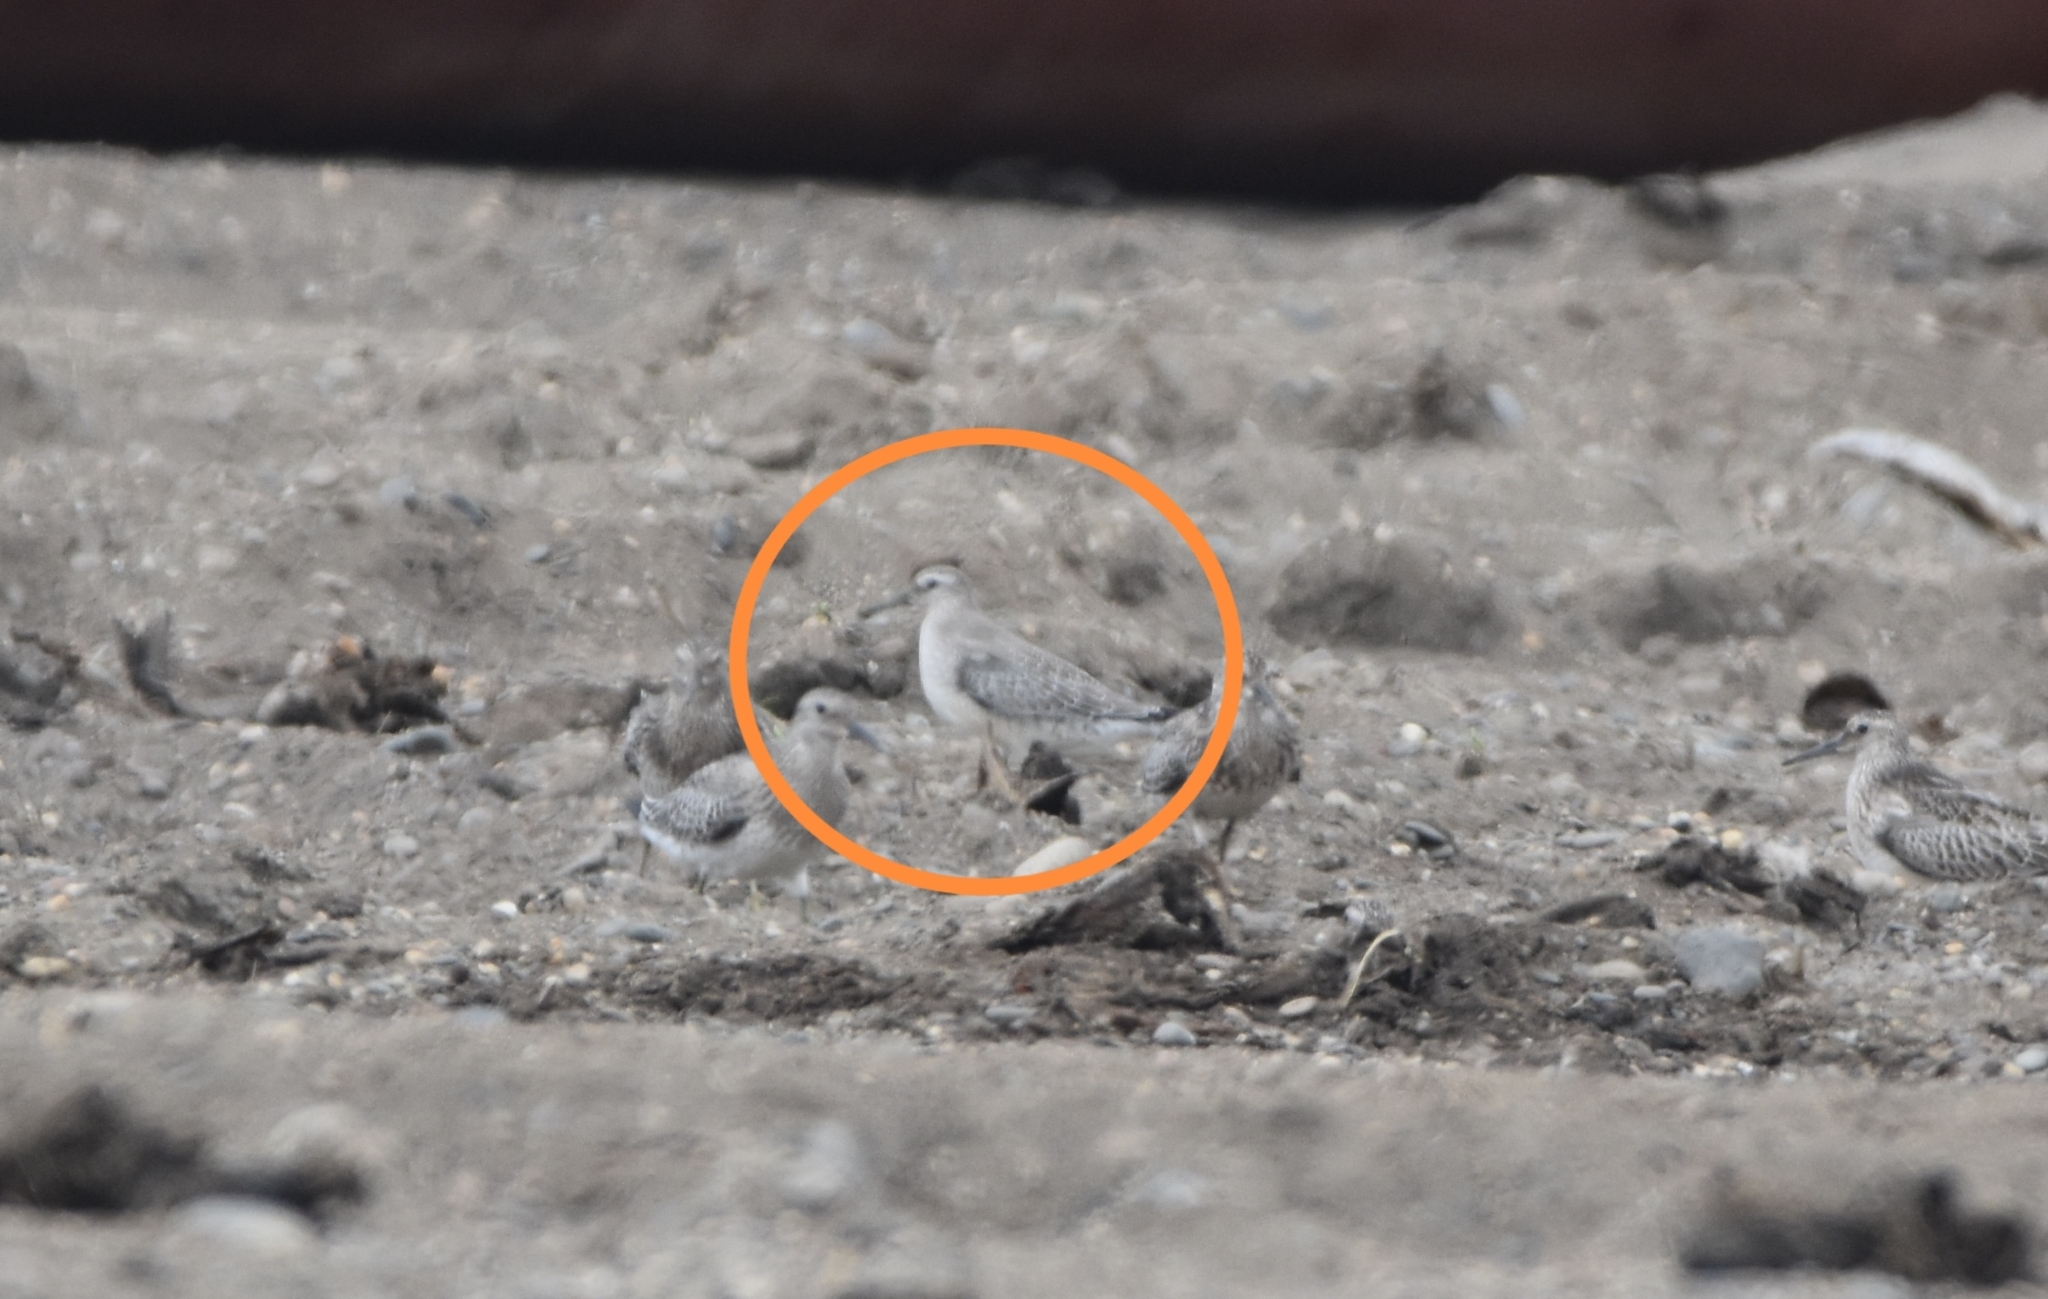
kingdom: Animalia
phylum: Chordata
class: Aves
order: Charadriiformes
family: Scolopacidae
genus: Calidris
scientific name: Calidris canutus
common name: Red knot
